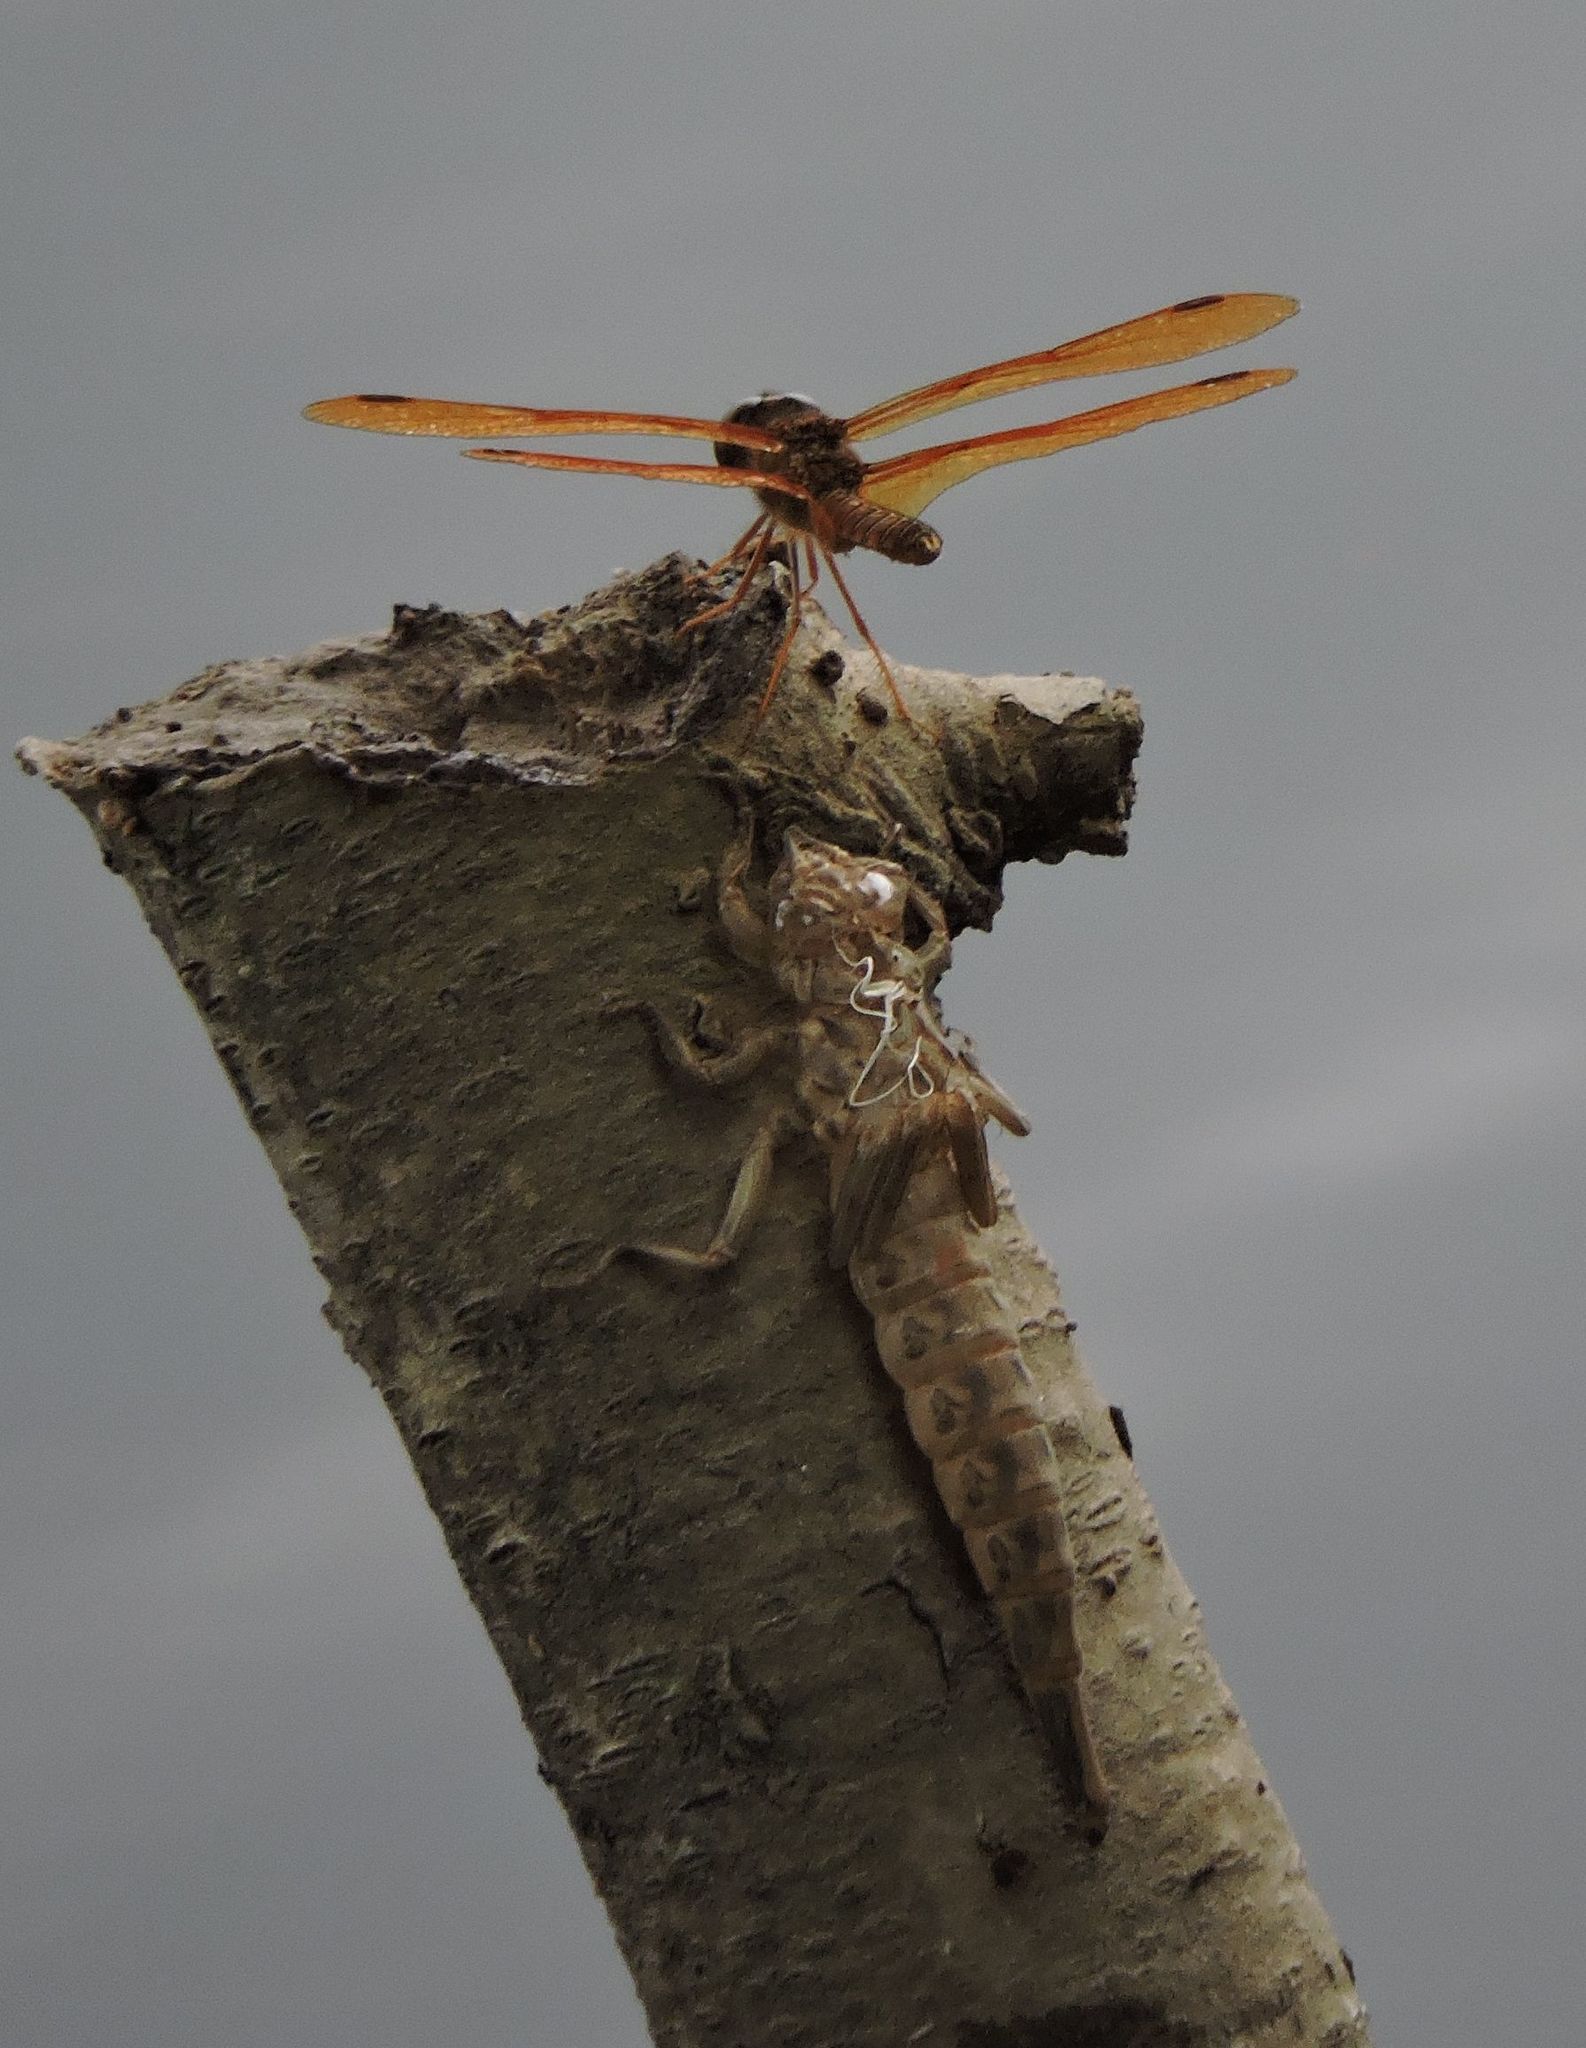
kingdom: Animalia
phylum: Arthropoda
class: Insecta
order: Odonata
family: Libellulidae
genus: Perithemis
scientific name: Perithemis tenera
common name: Eastern amberwing
